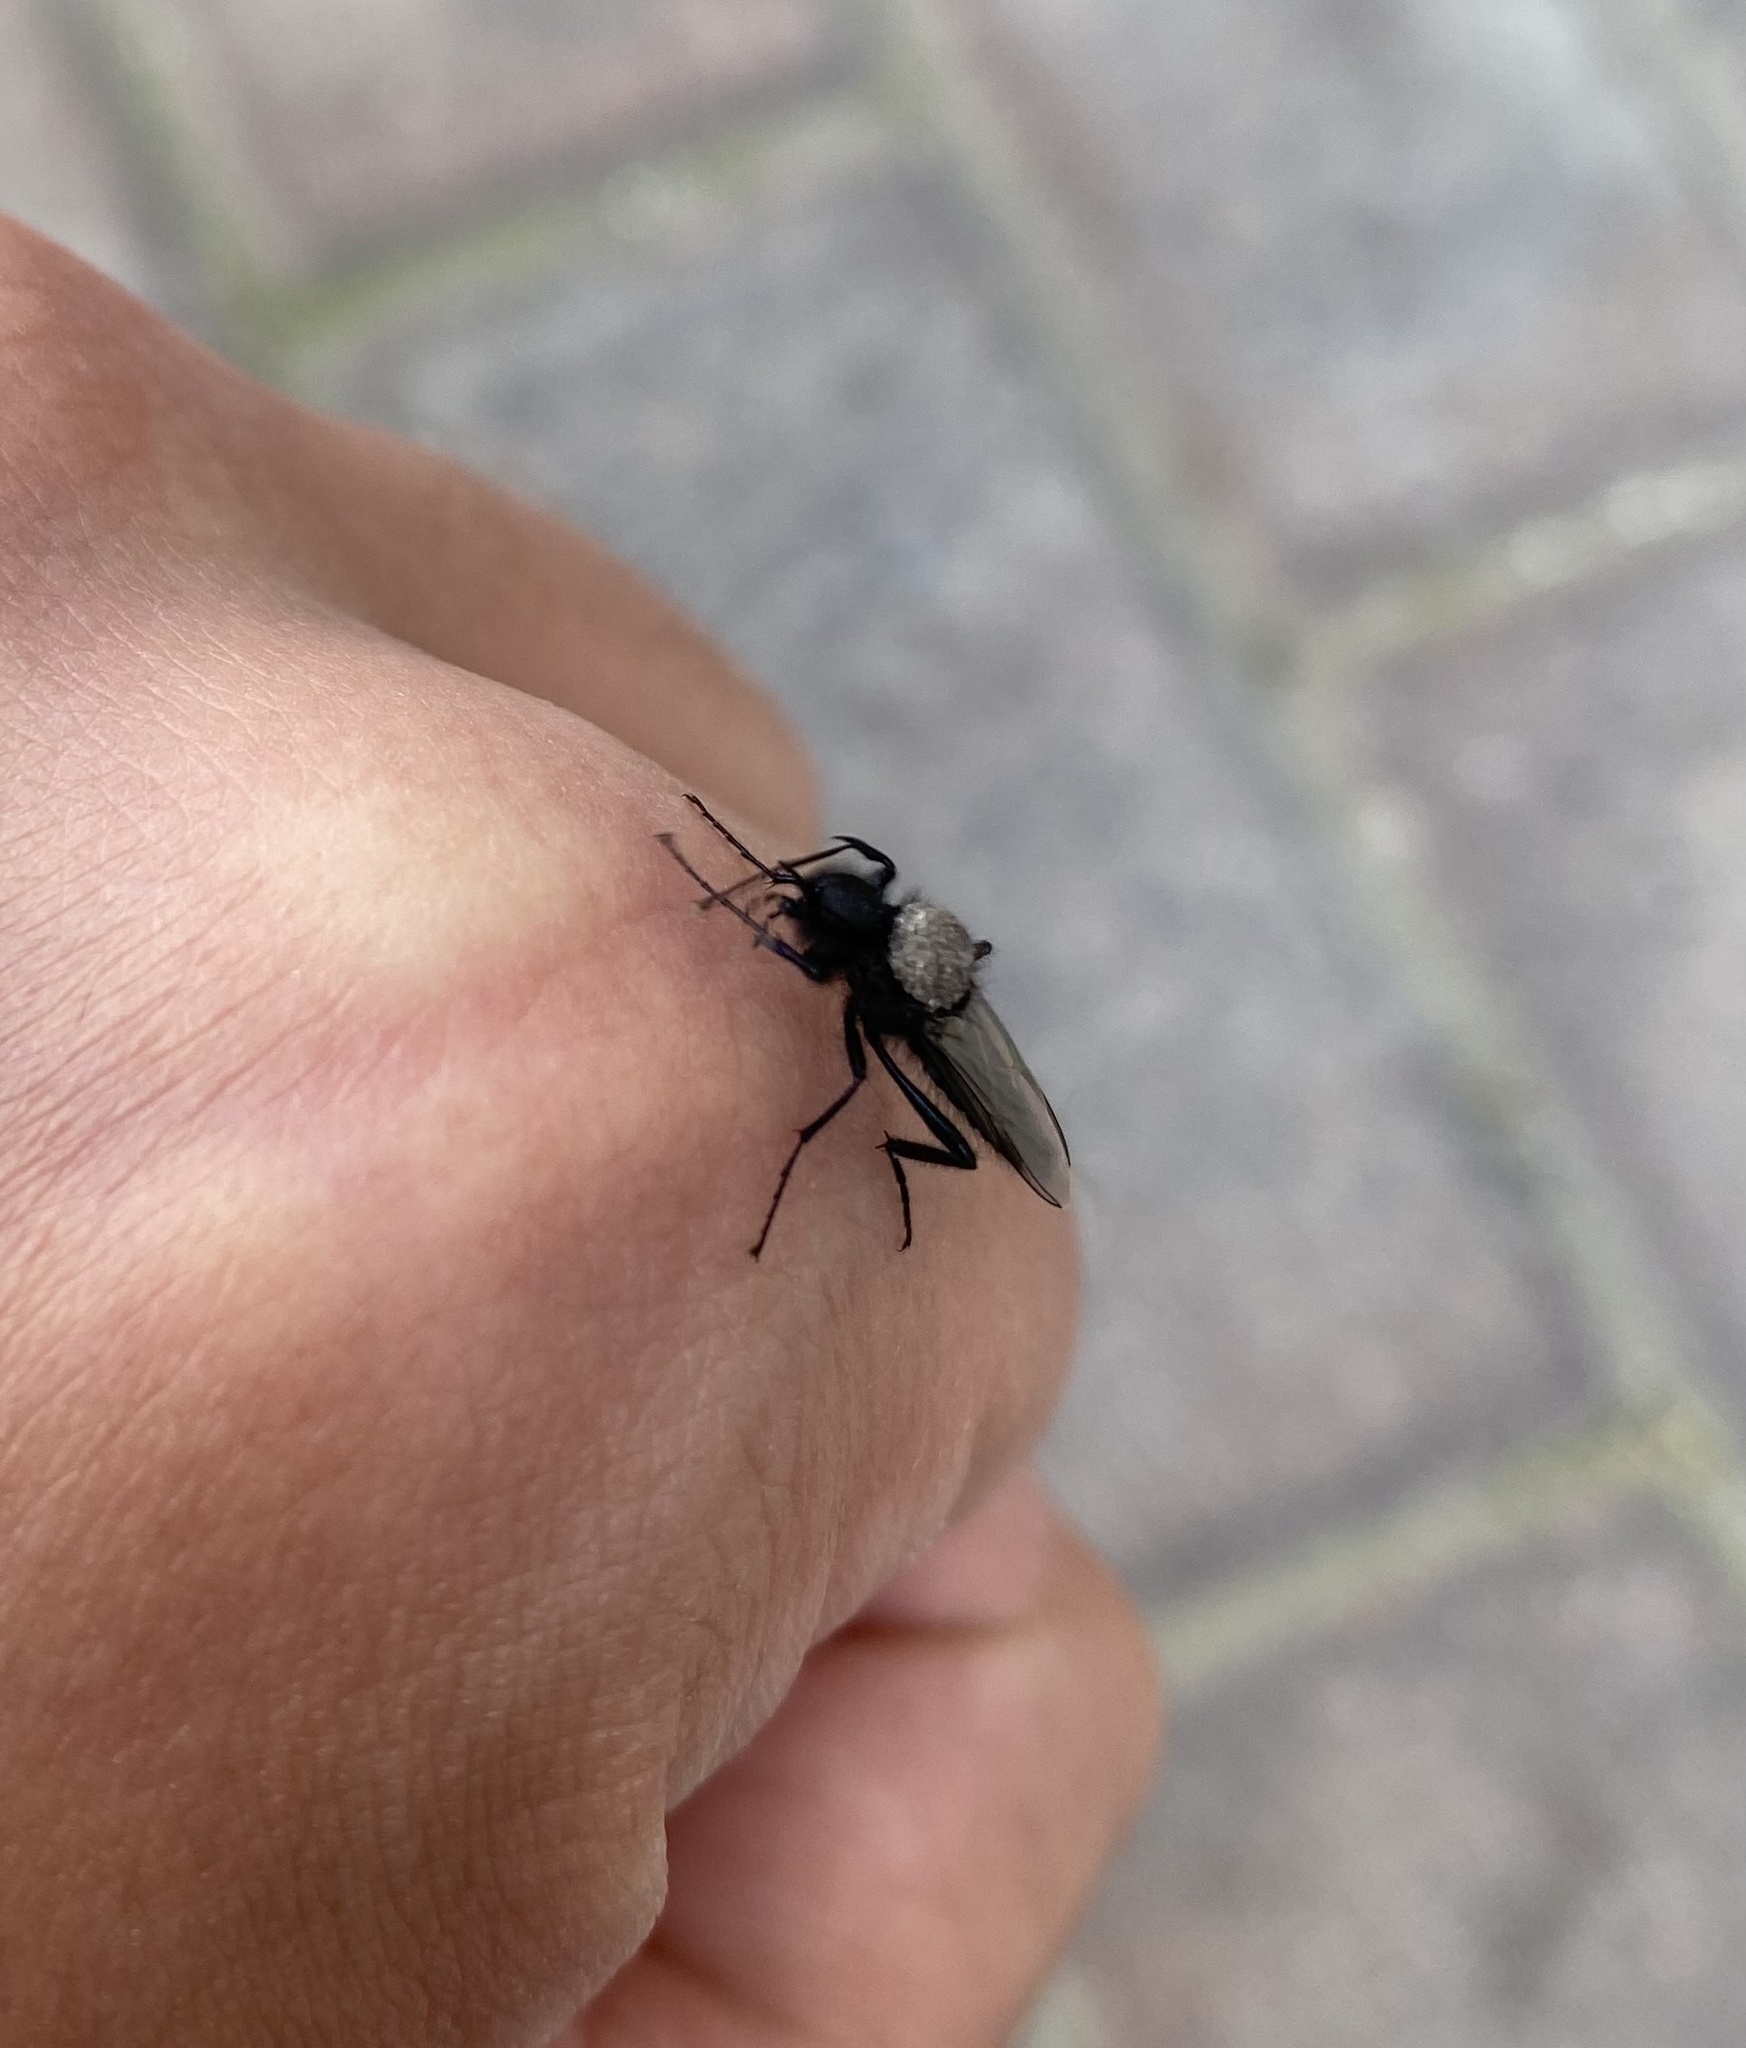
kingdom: Animalia
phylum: Arthropoda
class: Insecta
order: Diptera
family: Bibionidae
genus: Bibio
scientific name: Bibio
